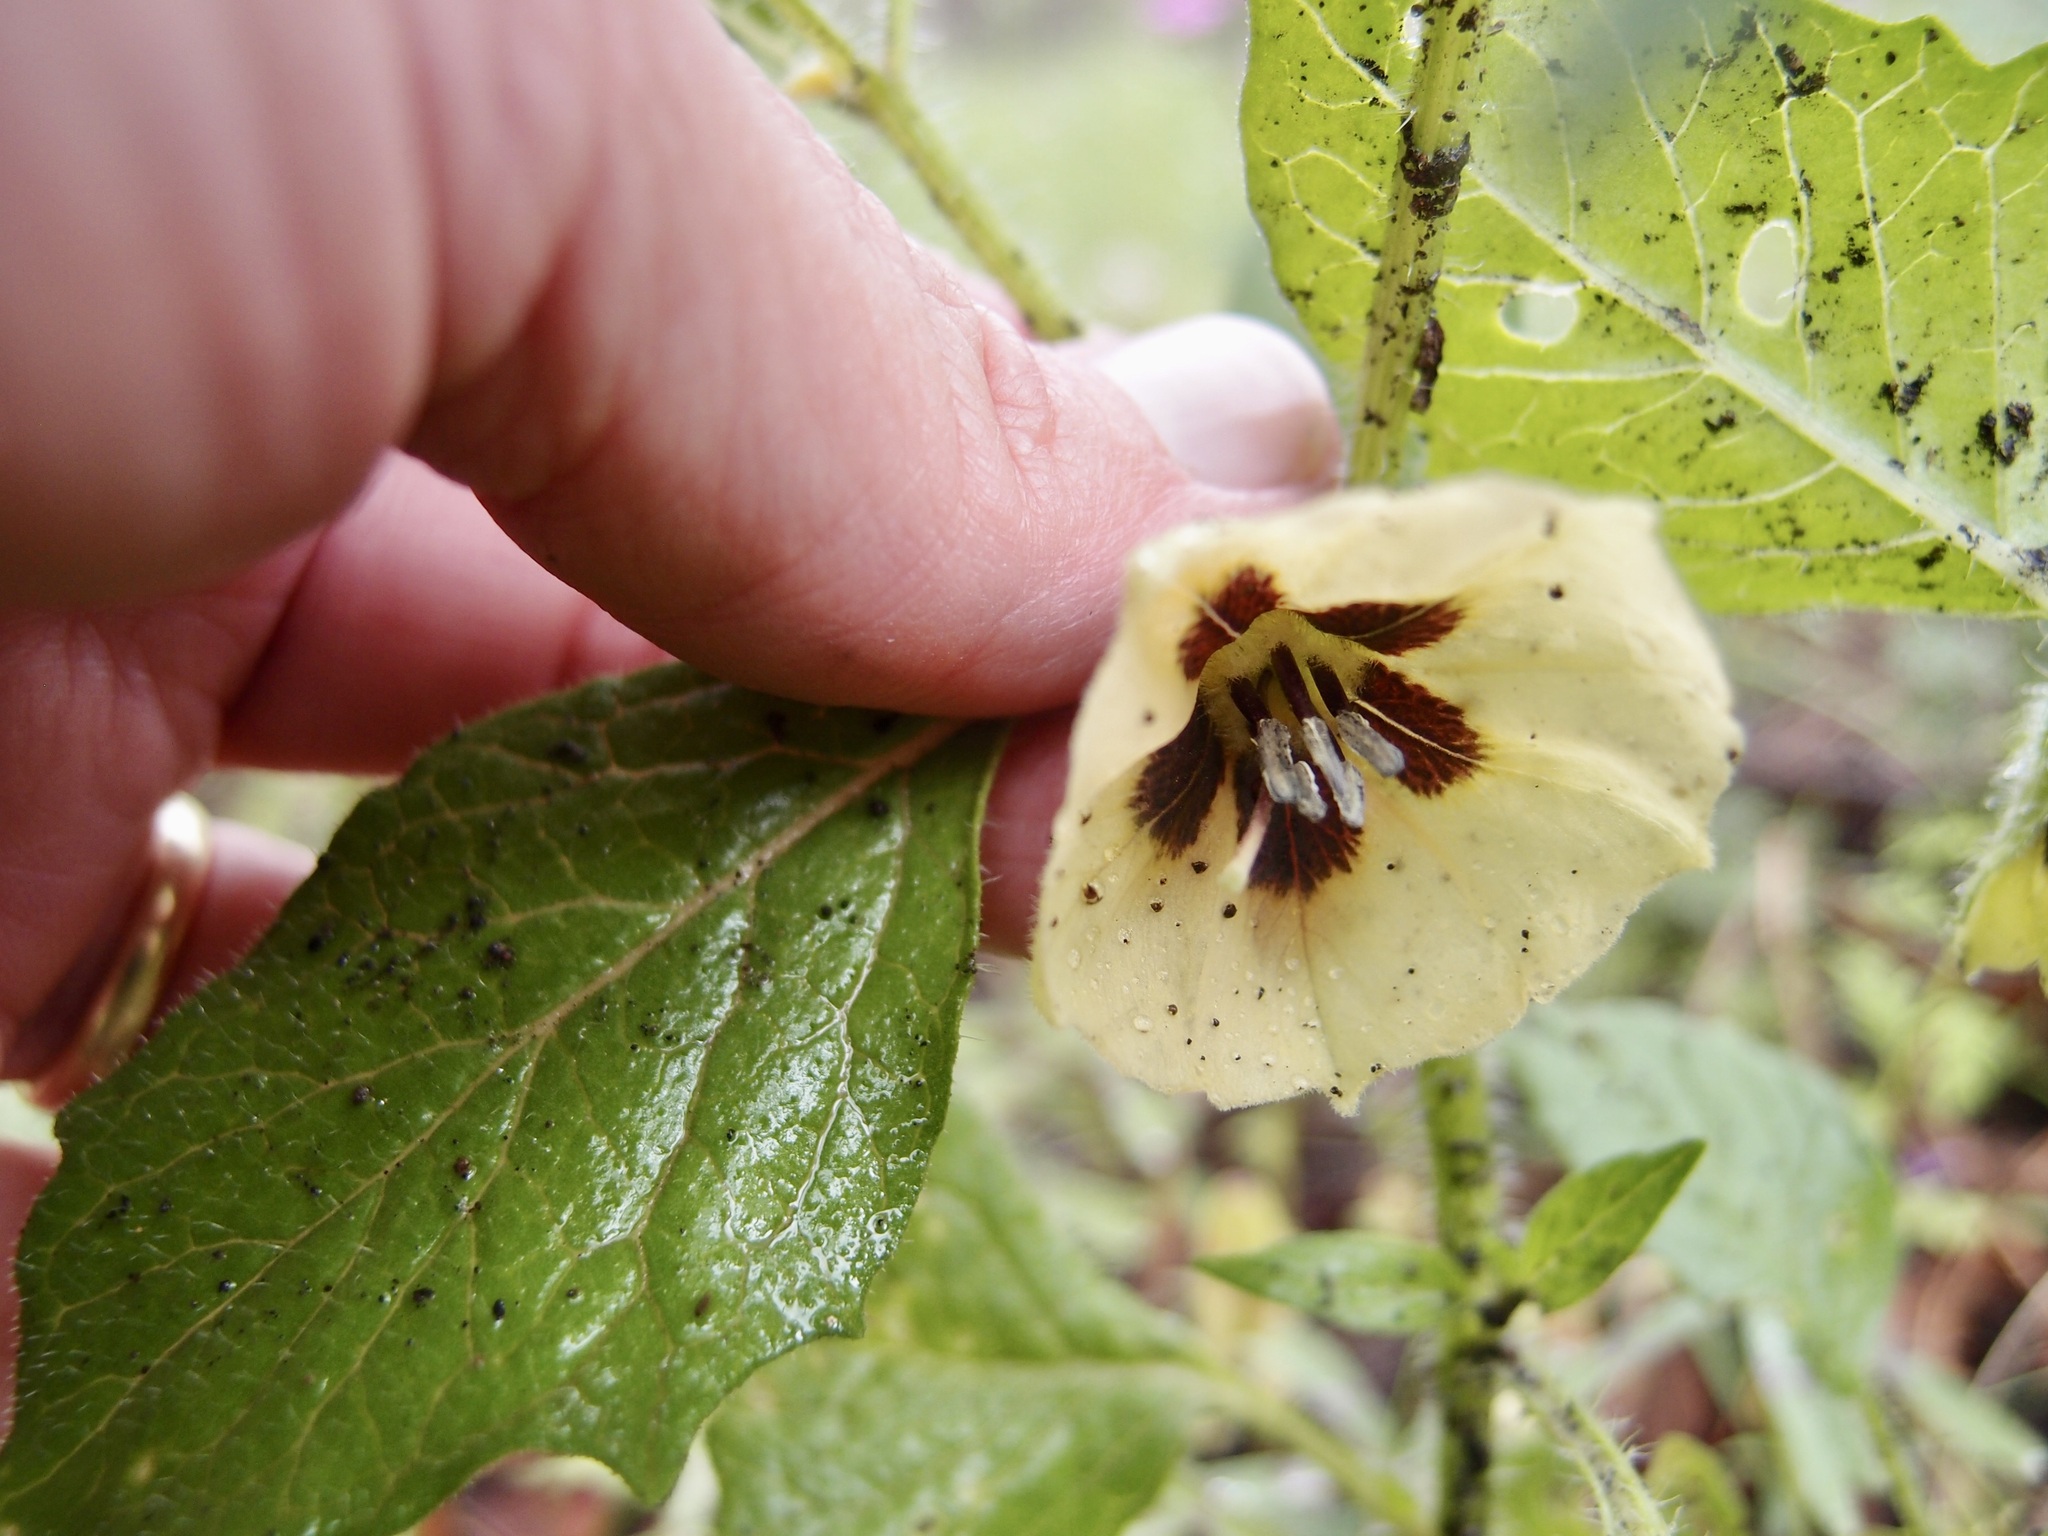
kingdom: Plantae
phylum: Tracheophyta
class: Magnoliopsida
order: Solanales
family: Solanaceae
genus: Physalis
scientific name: Physalis caudella
